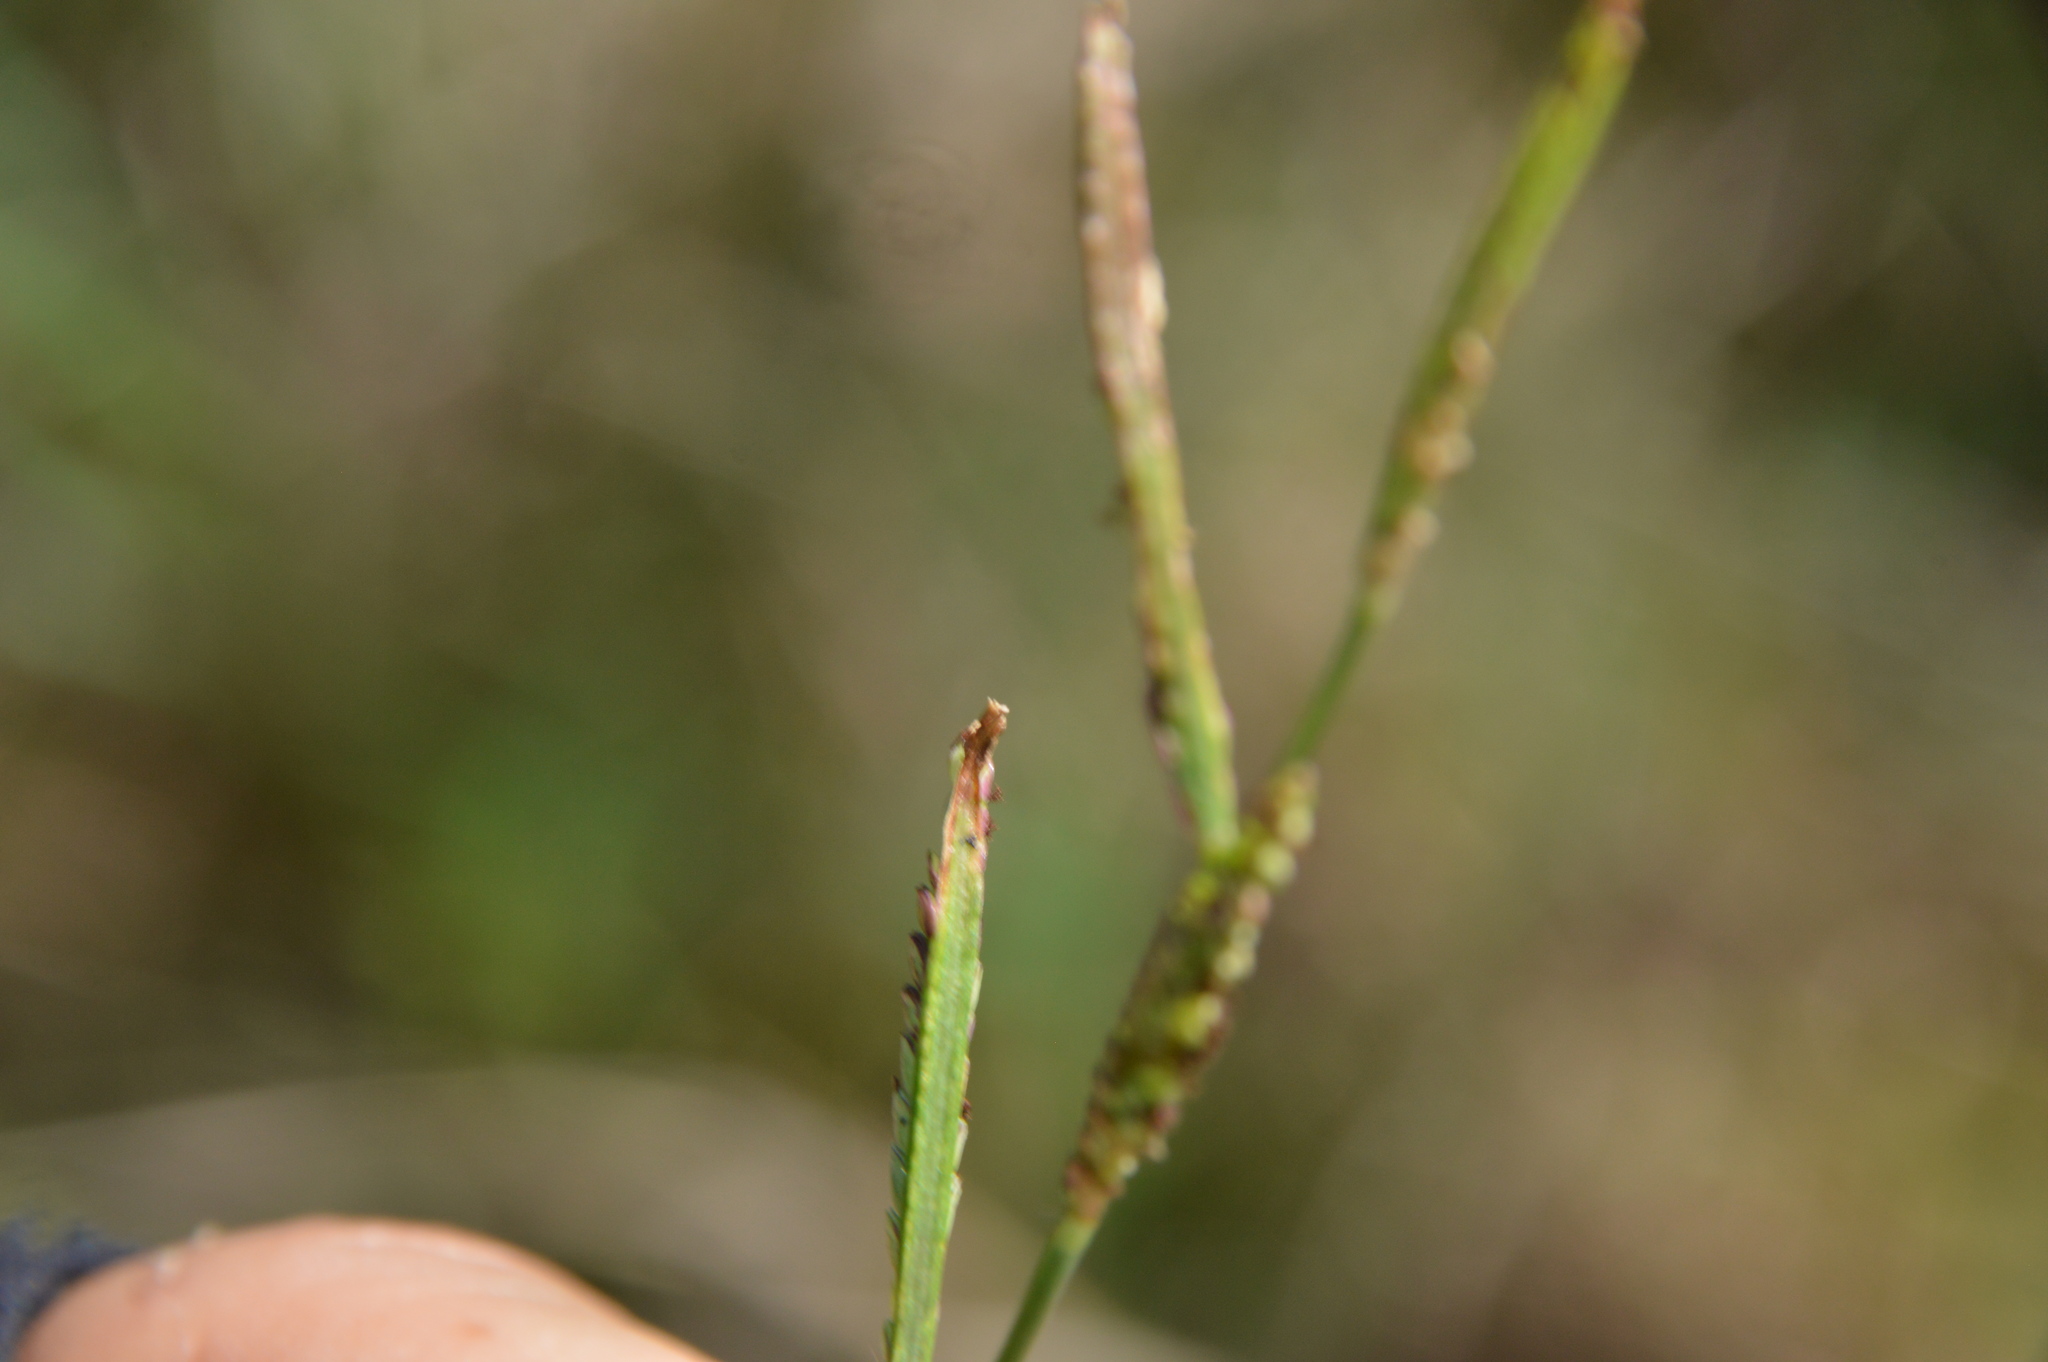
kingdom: Plantae
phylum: Tracheophyta
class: Liliopsida
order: Poales
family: Poaceae
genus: Paspalum
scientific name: Paspalum denticulatum
